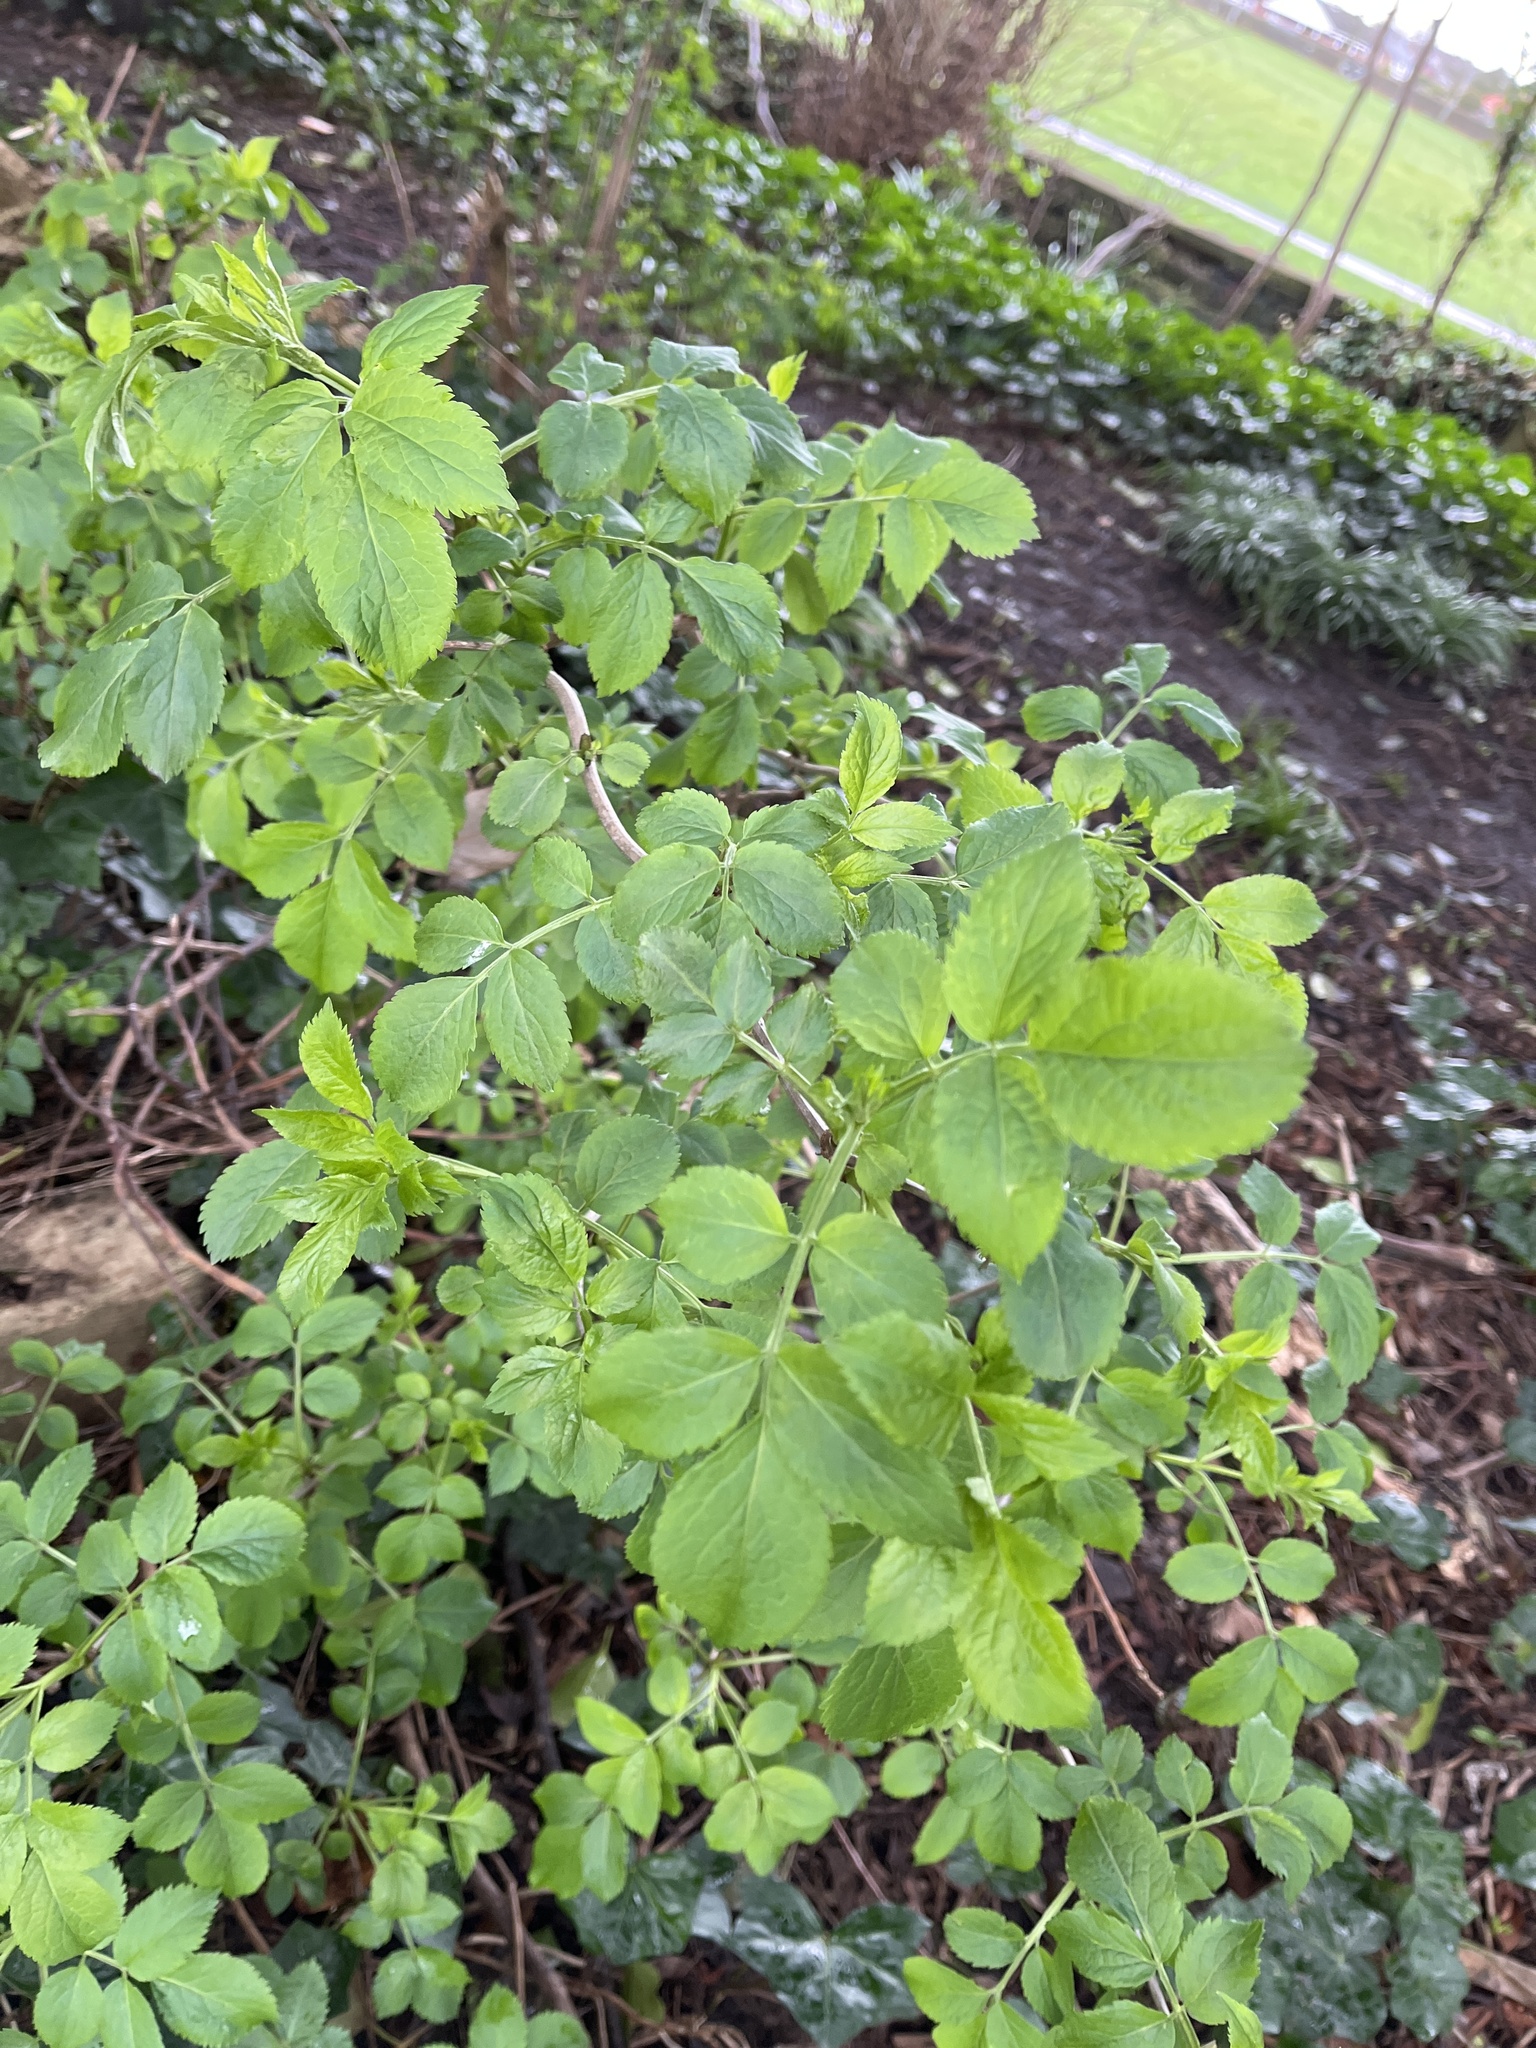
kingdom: Plantae
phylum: Tracheophyta
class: Magnoliopsida
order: Dipsacales
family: Viburnaceae
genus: Sambucus
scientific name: Sambucus nigra
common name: Elder
